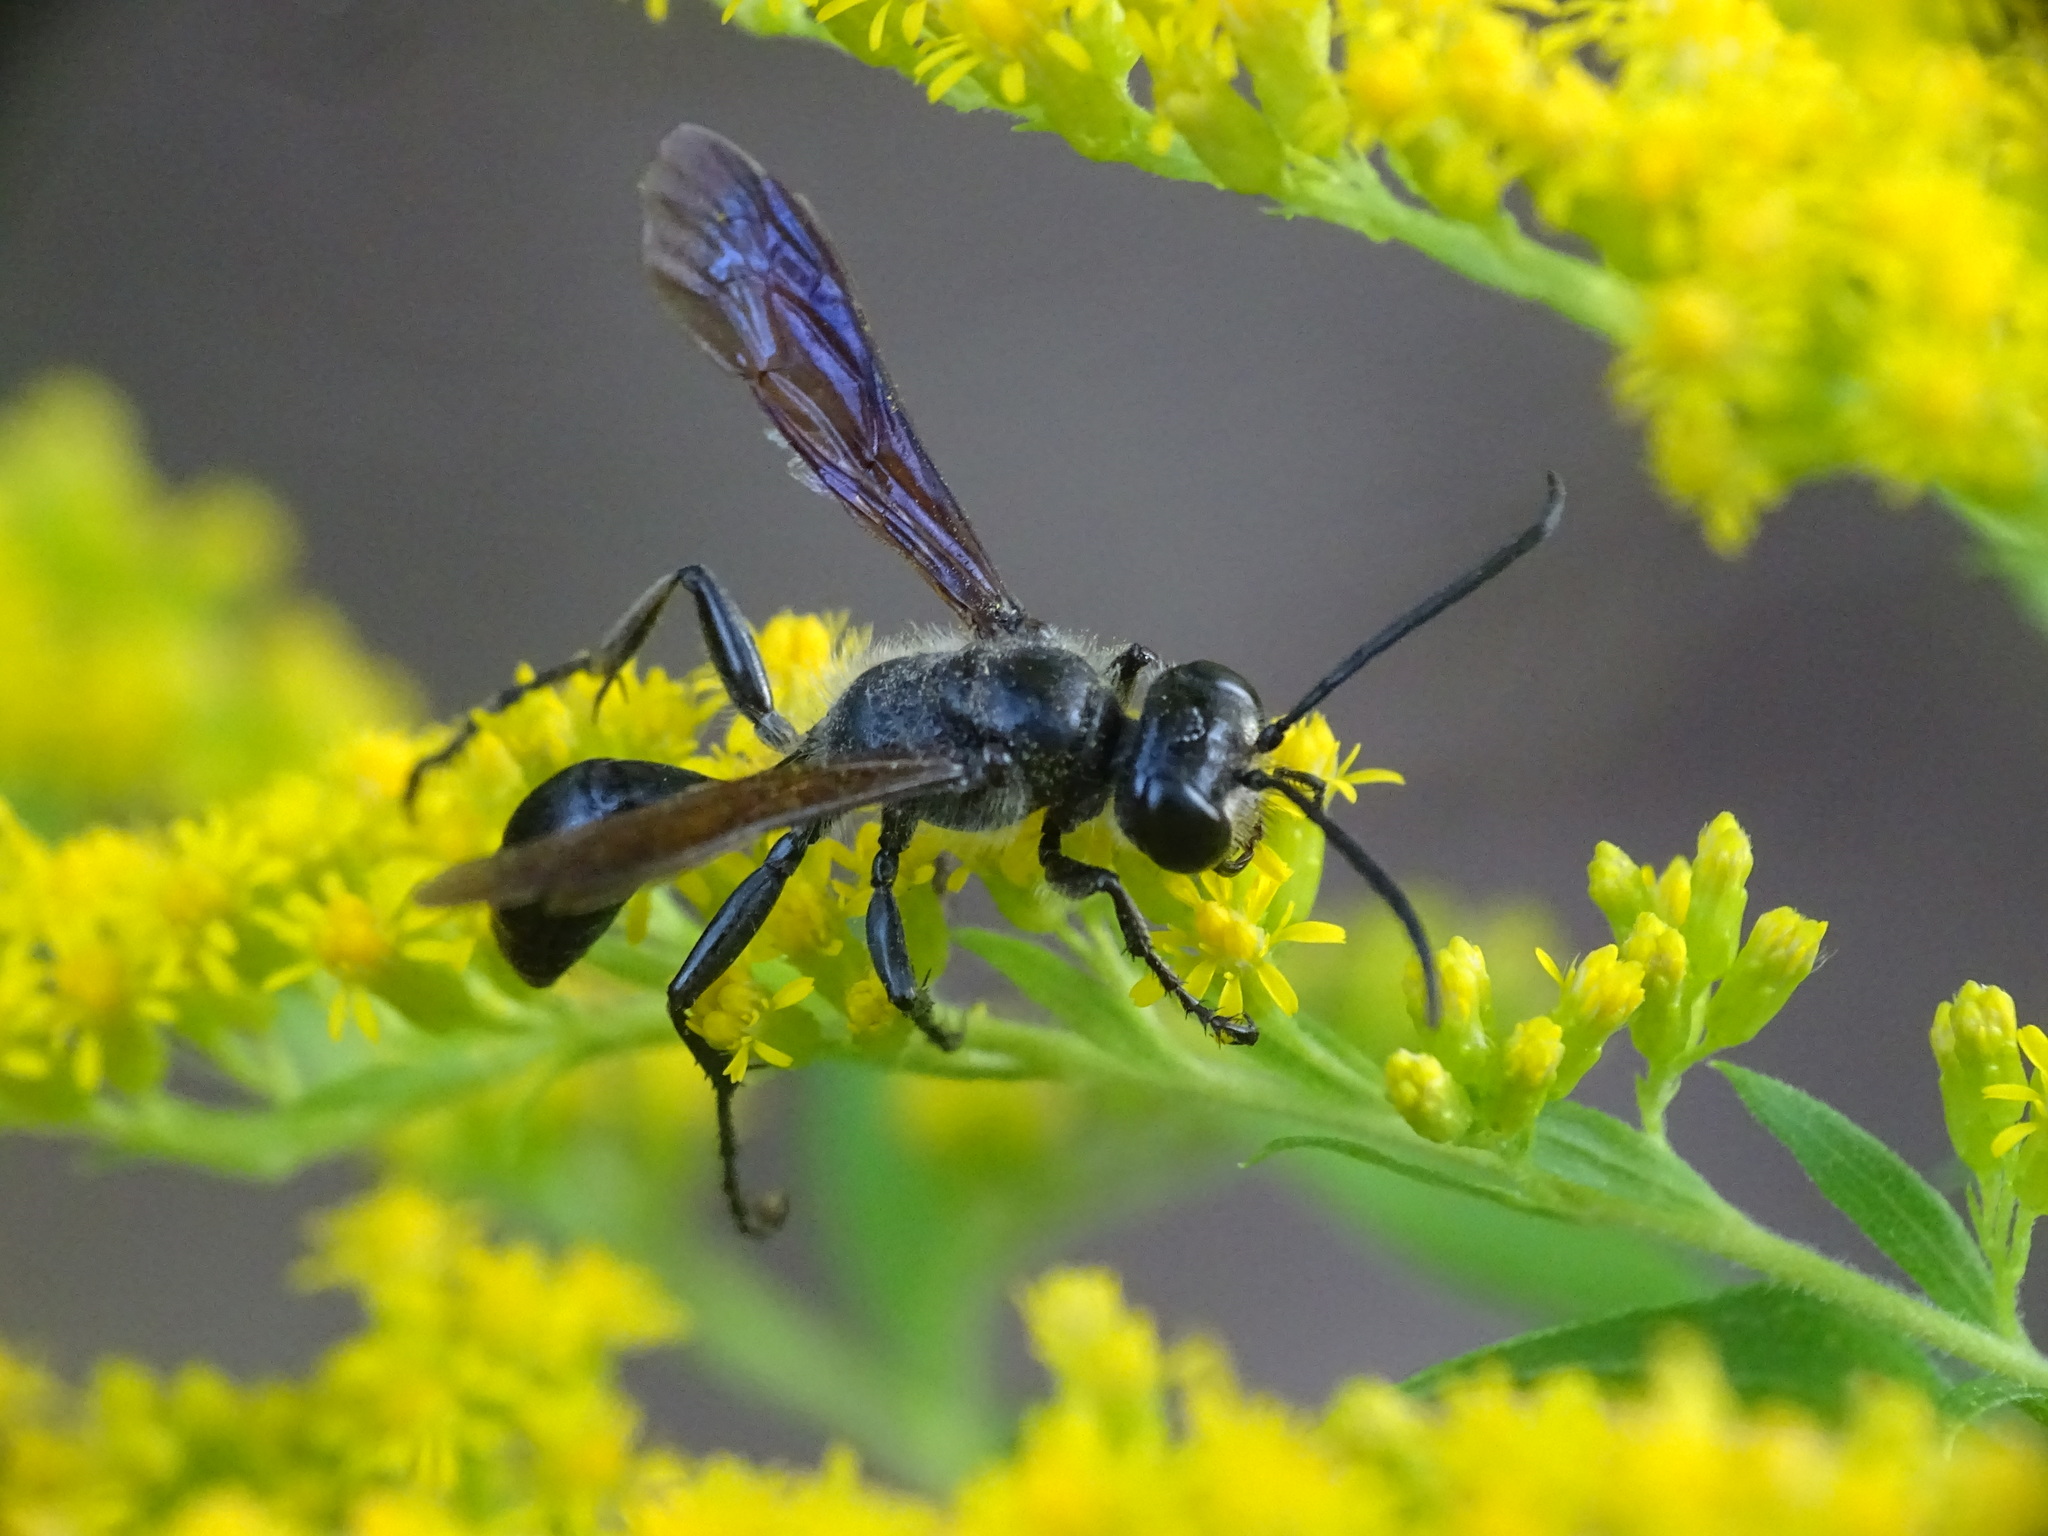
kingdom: Animalia
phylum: Arthropoda
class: Insecta
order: Hymenoptera
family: Sphecidae
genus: Isodontia
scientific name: Isodontia mexicana
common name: Mud dauber
